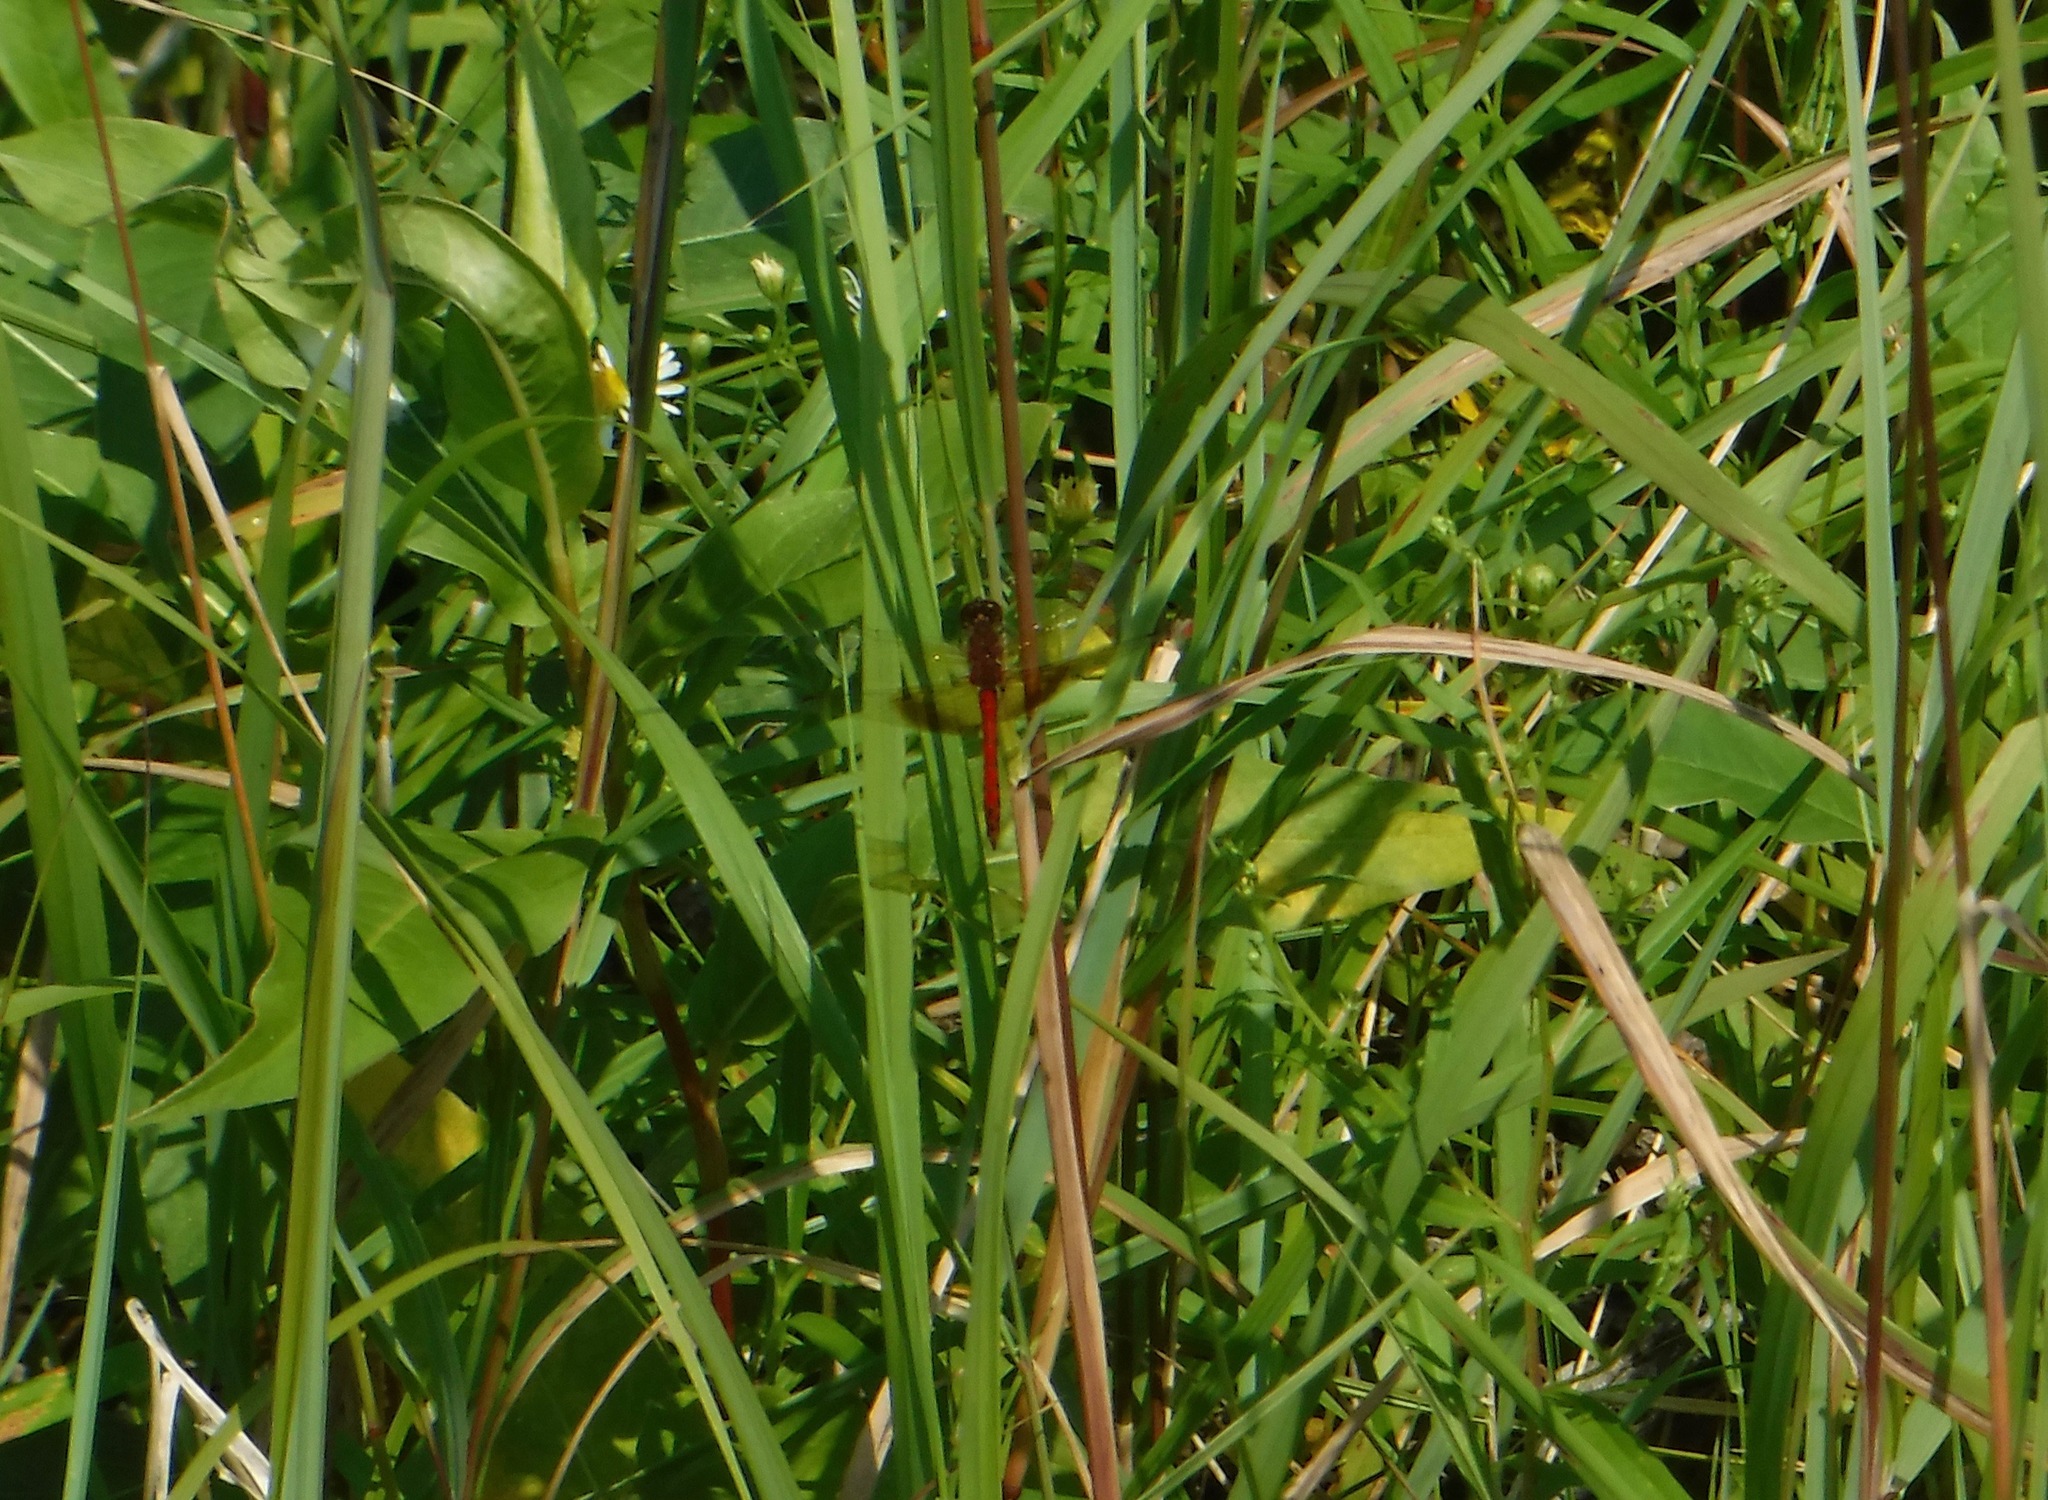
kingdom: Animalia
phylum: Arthropoda
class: Insecta
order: Odonata
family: Libellulidae
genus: Sympetrum
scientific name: Sympetrum semicinctum
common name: Band-winged meadowhawk
